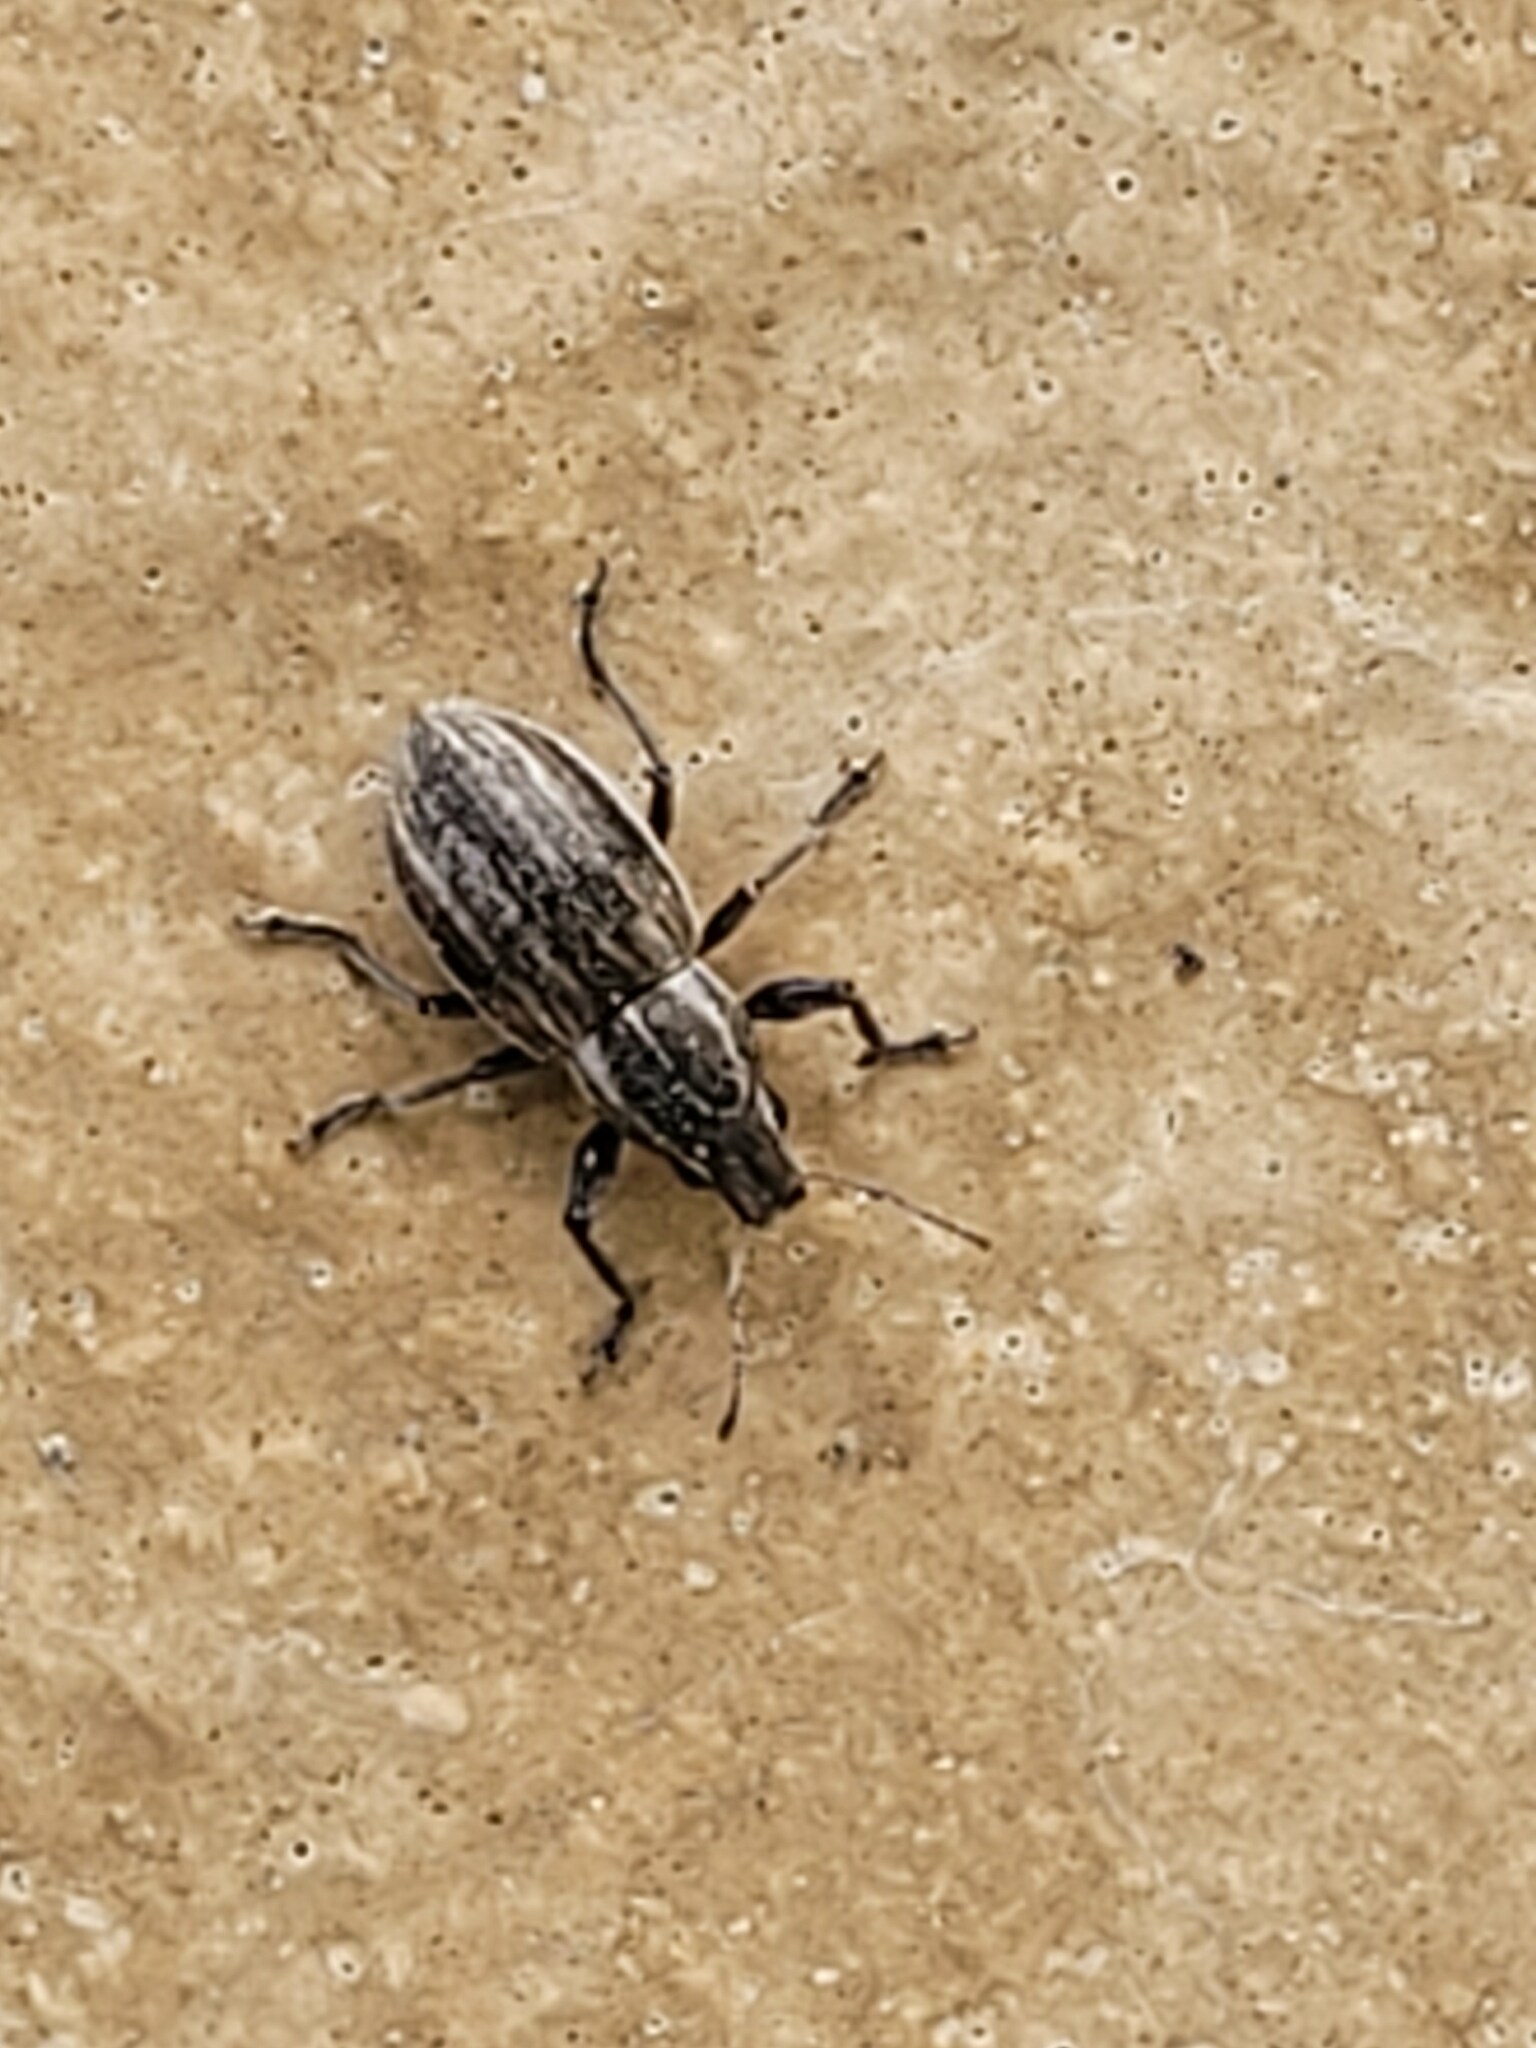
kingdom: Animalia
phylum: Arthropoda
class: Insecta
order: Coleoptera
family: Curculionidae
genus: Naupactus
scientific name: Naupactus leucoloma
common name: Whitefringed beetle
